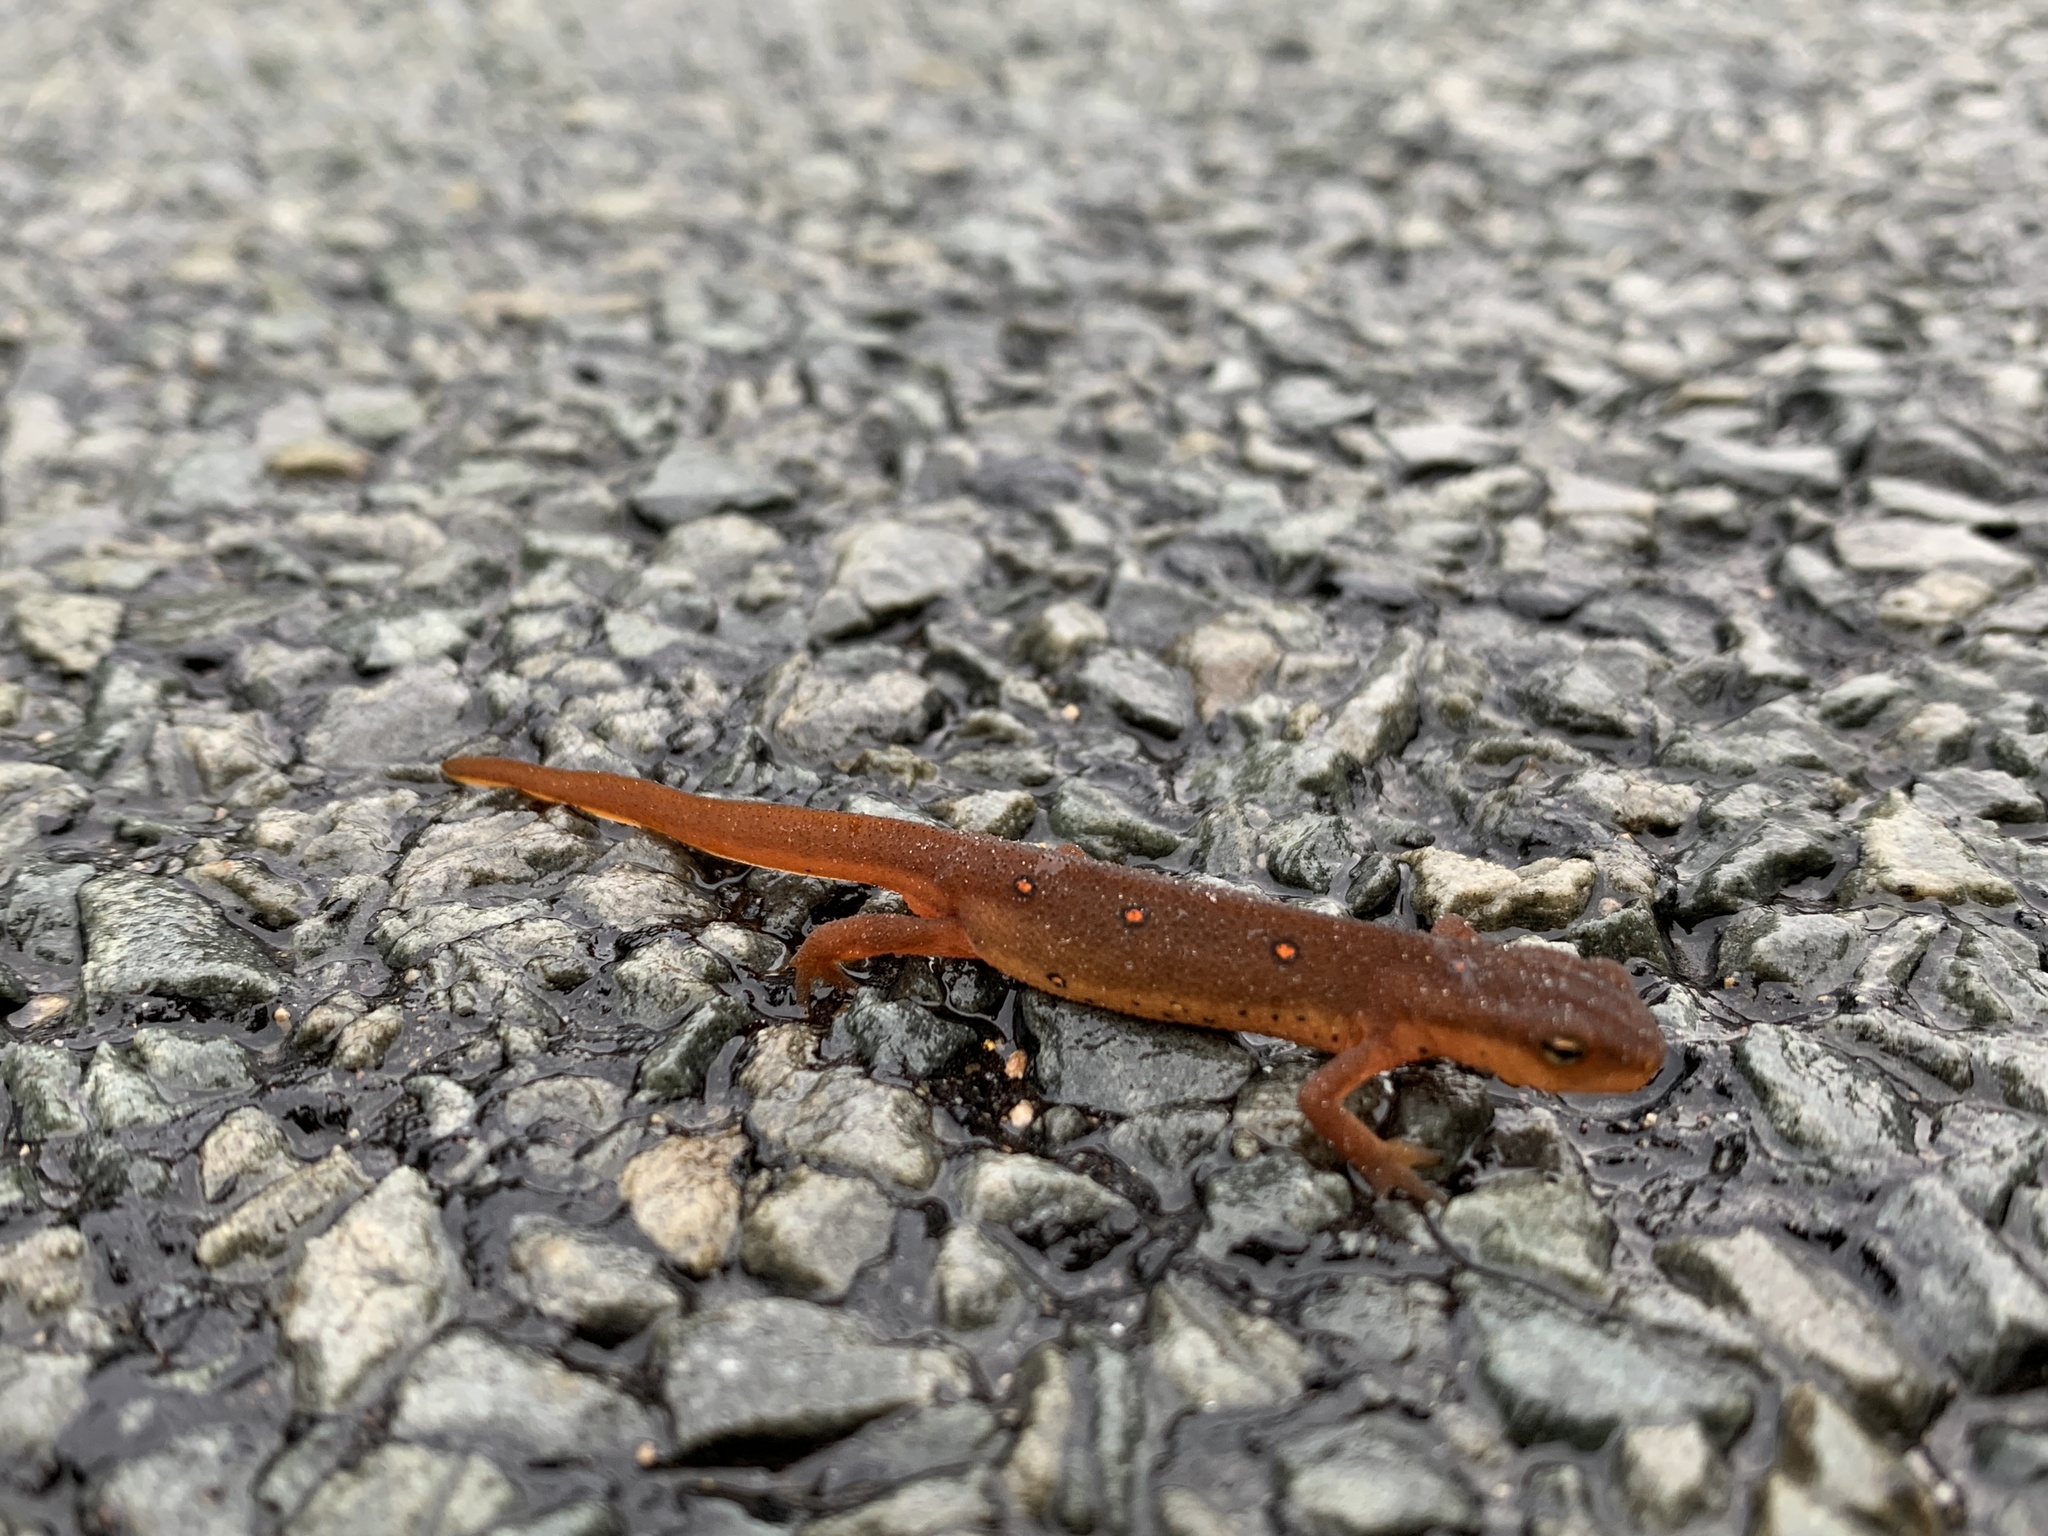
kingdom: Animalia
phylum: Chordata
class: Amphibia
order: Caudata
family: Salamandridae
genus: Notophthalmus
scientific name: Notophthalmus viridescens
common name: Eastern newt
